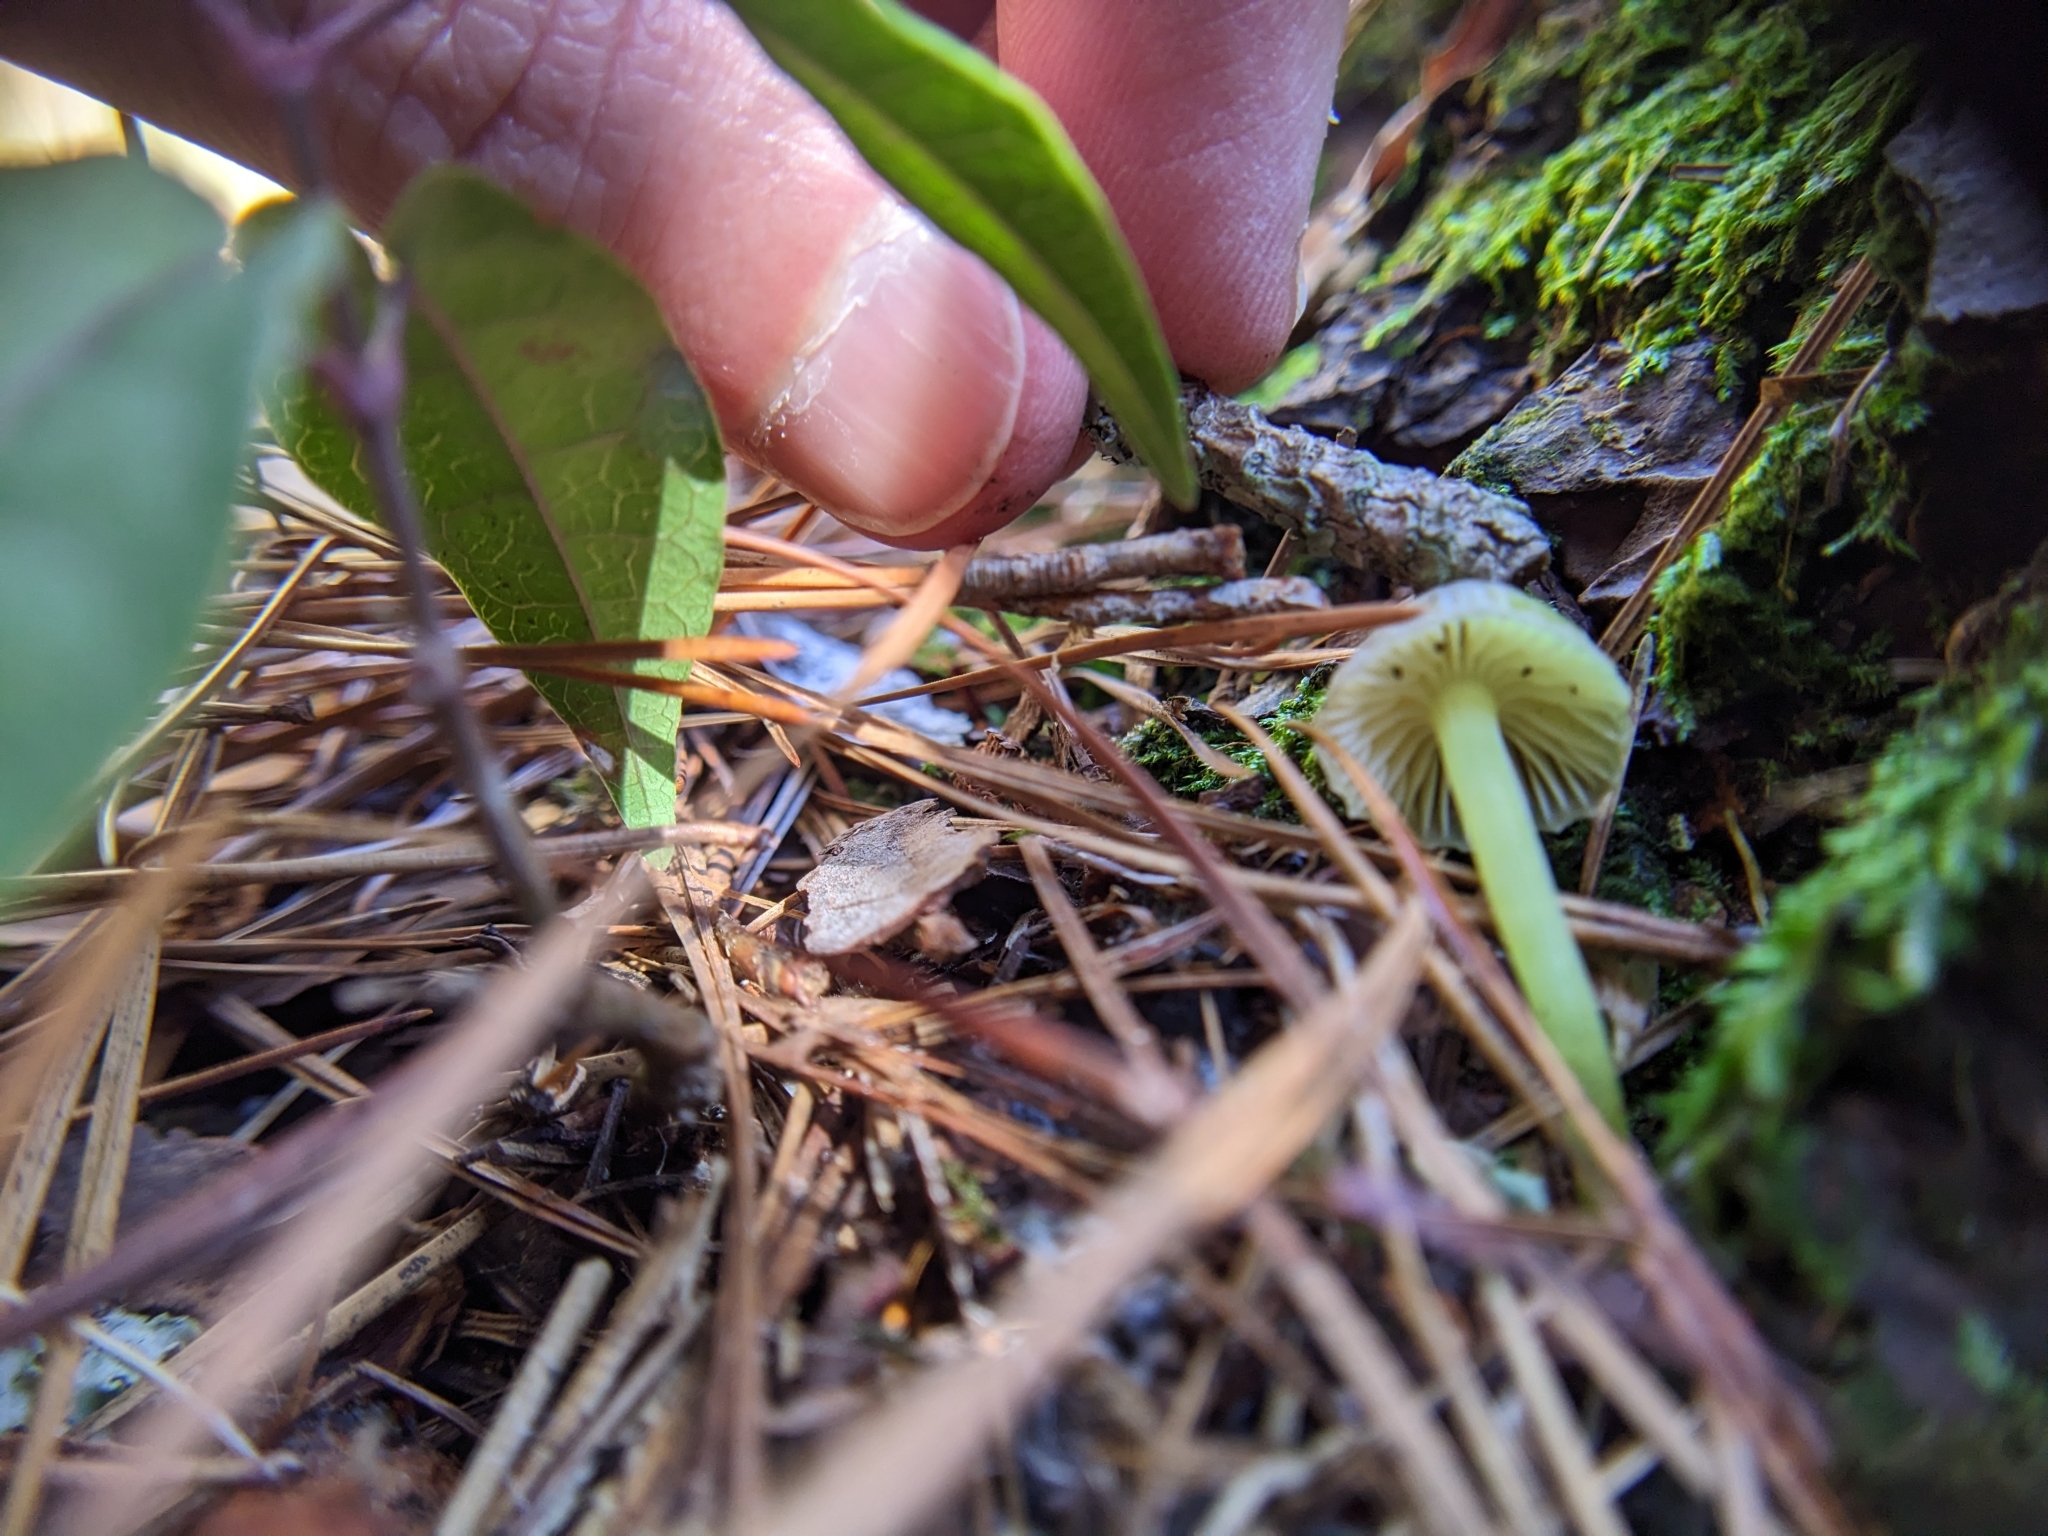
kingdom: Animalia
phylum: Arthropoda
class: Collembola
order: Symphypleona
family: Katiannidae
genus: Sminthurinus
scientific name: Sminthurinus minutus
